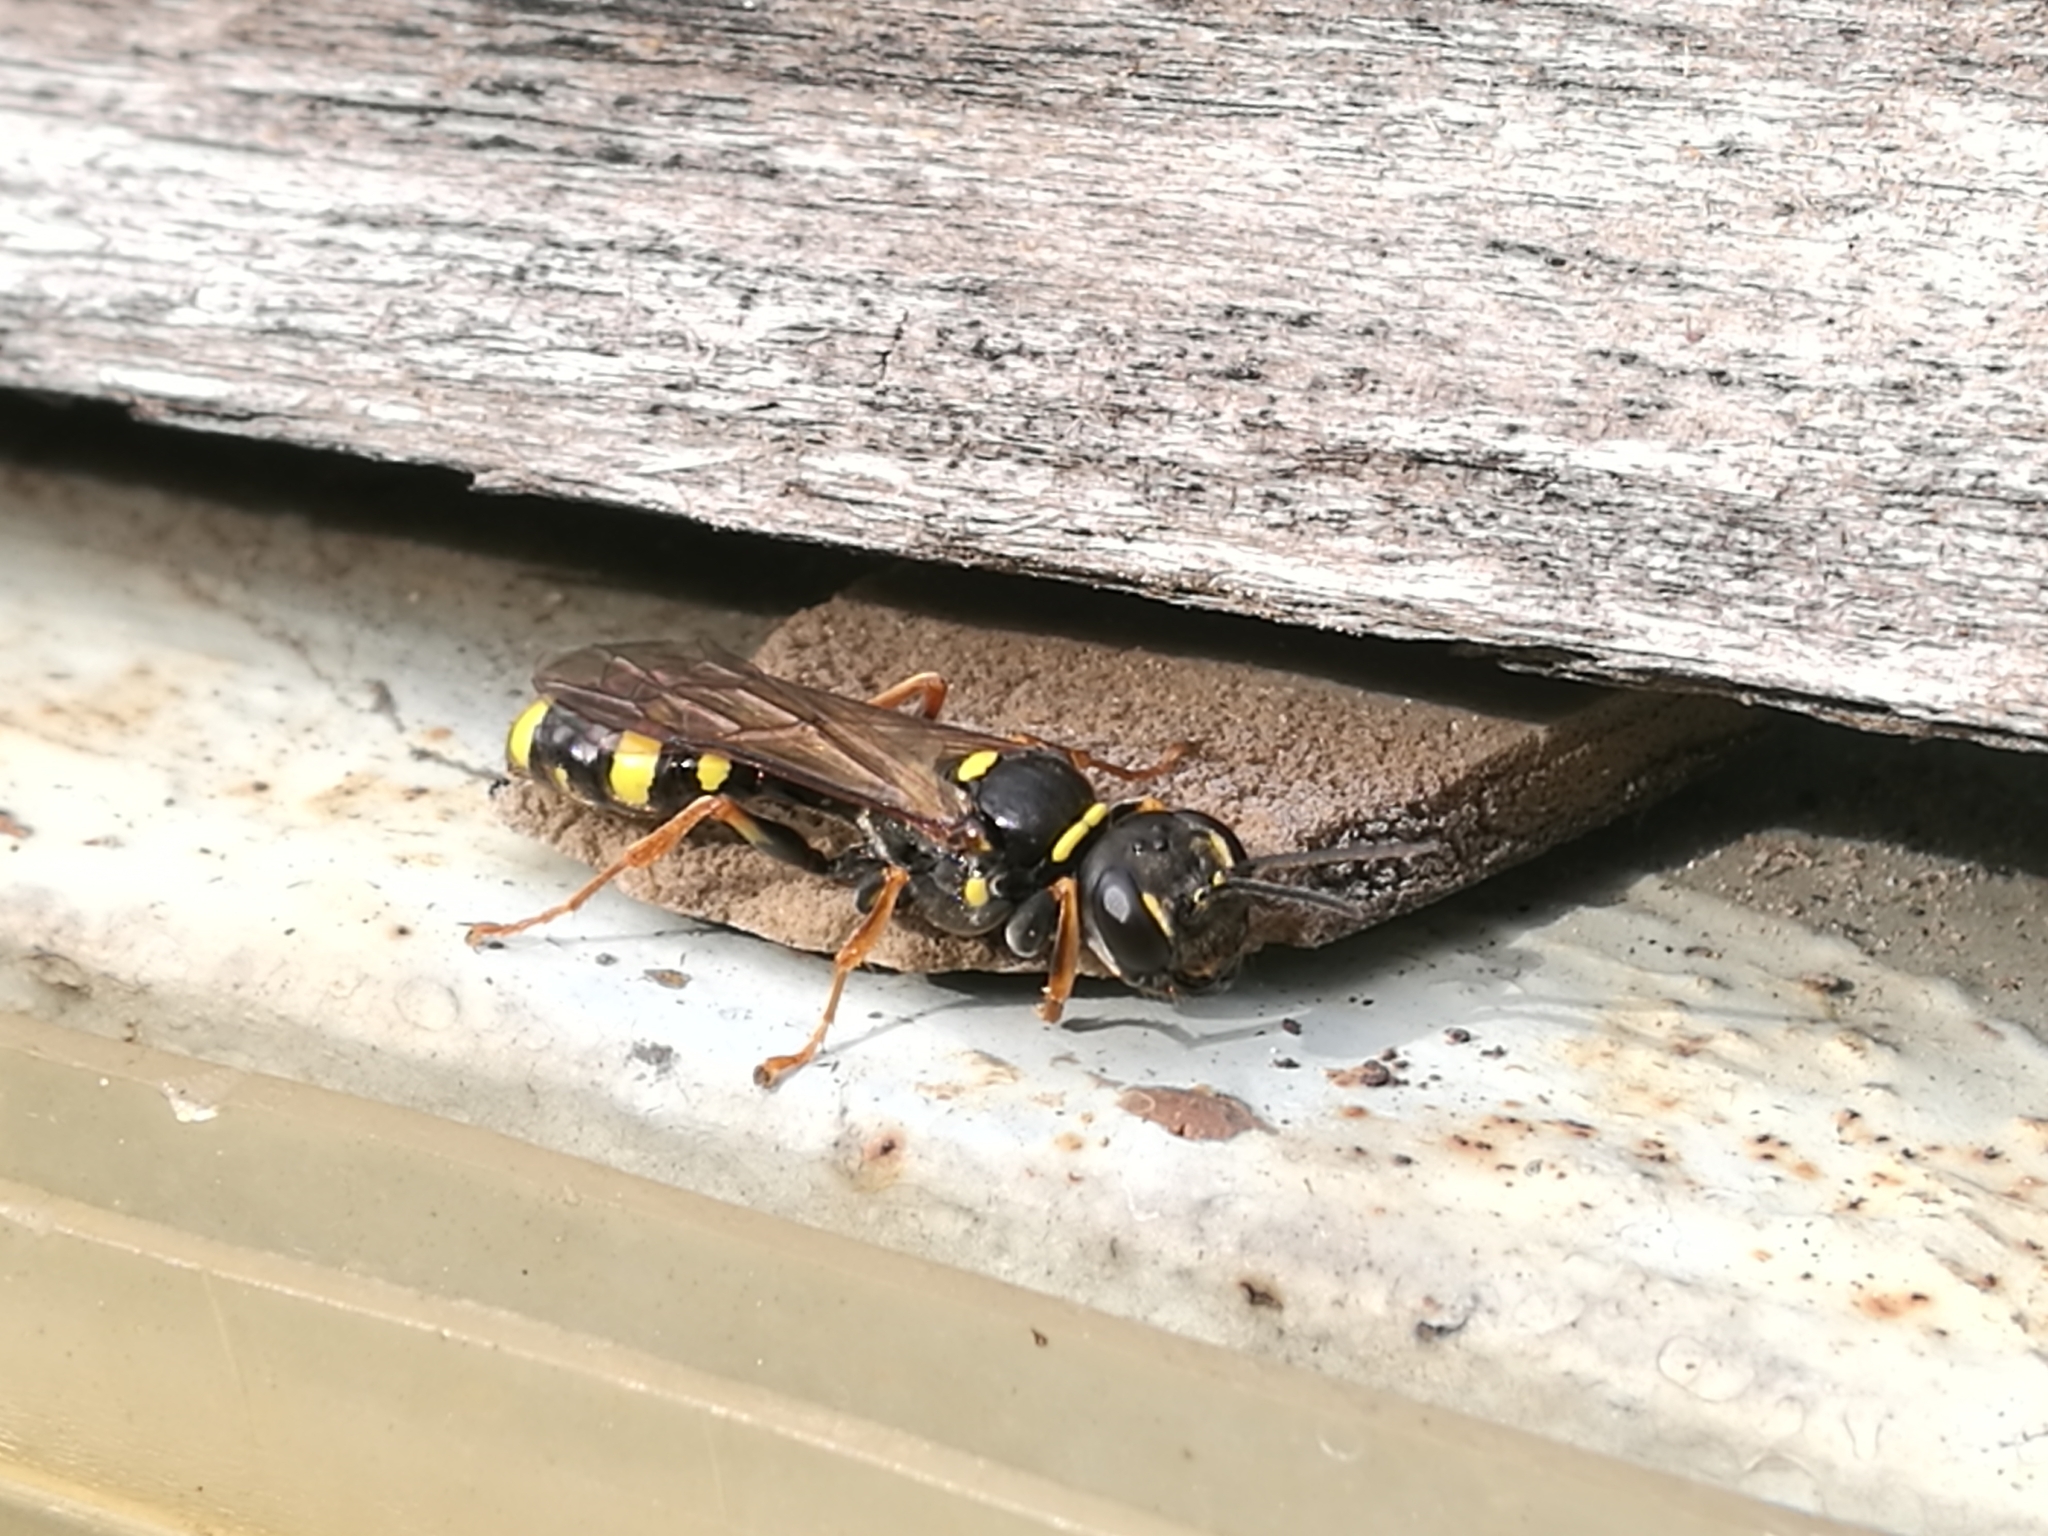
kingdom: Animalia
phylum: Arthropoda
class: Insecta
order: Hymenoptera
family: Crabronidae
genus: Mellinus
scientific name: Mellinus arvensis
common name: Field digger wasp
